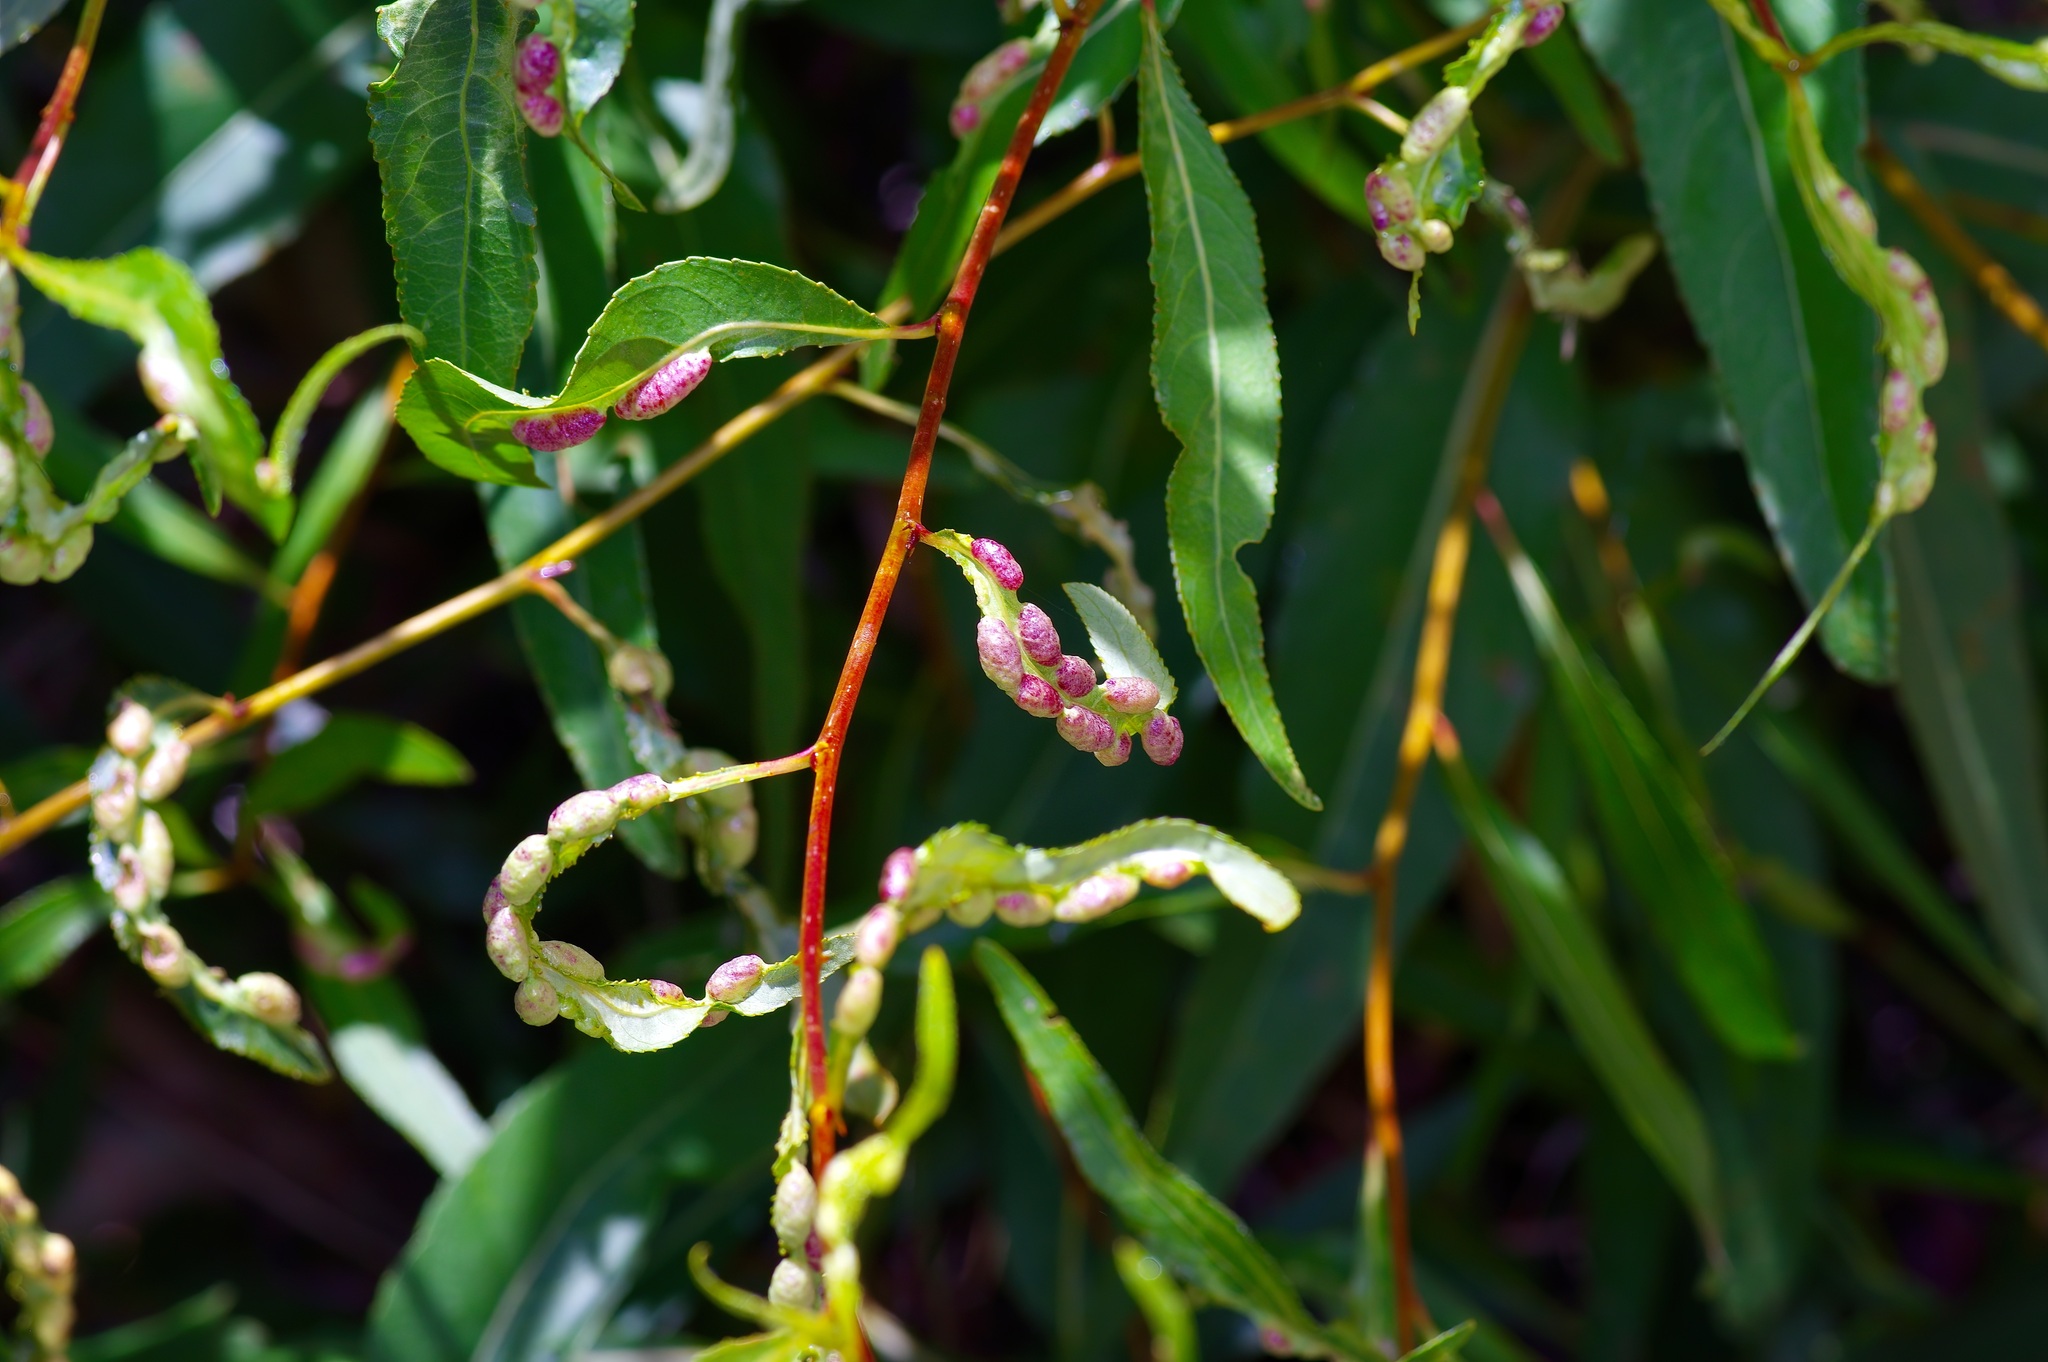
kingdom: Animalia
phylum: Arthropoda
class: Insecta
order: Hemiptera
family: Aphididae
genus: Thecabius
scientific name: Thecabius populimonilis
